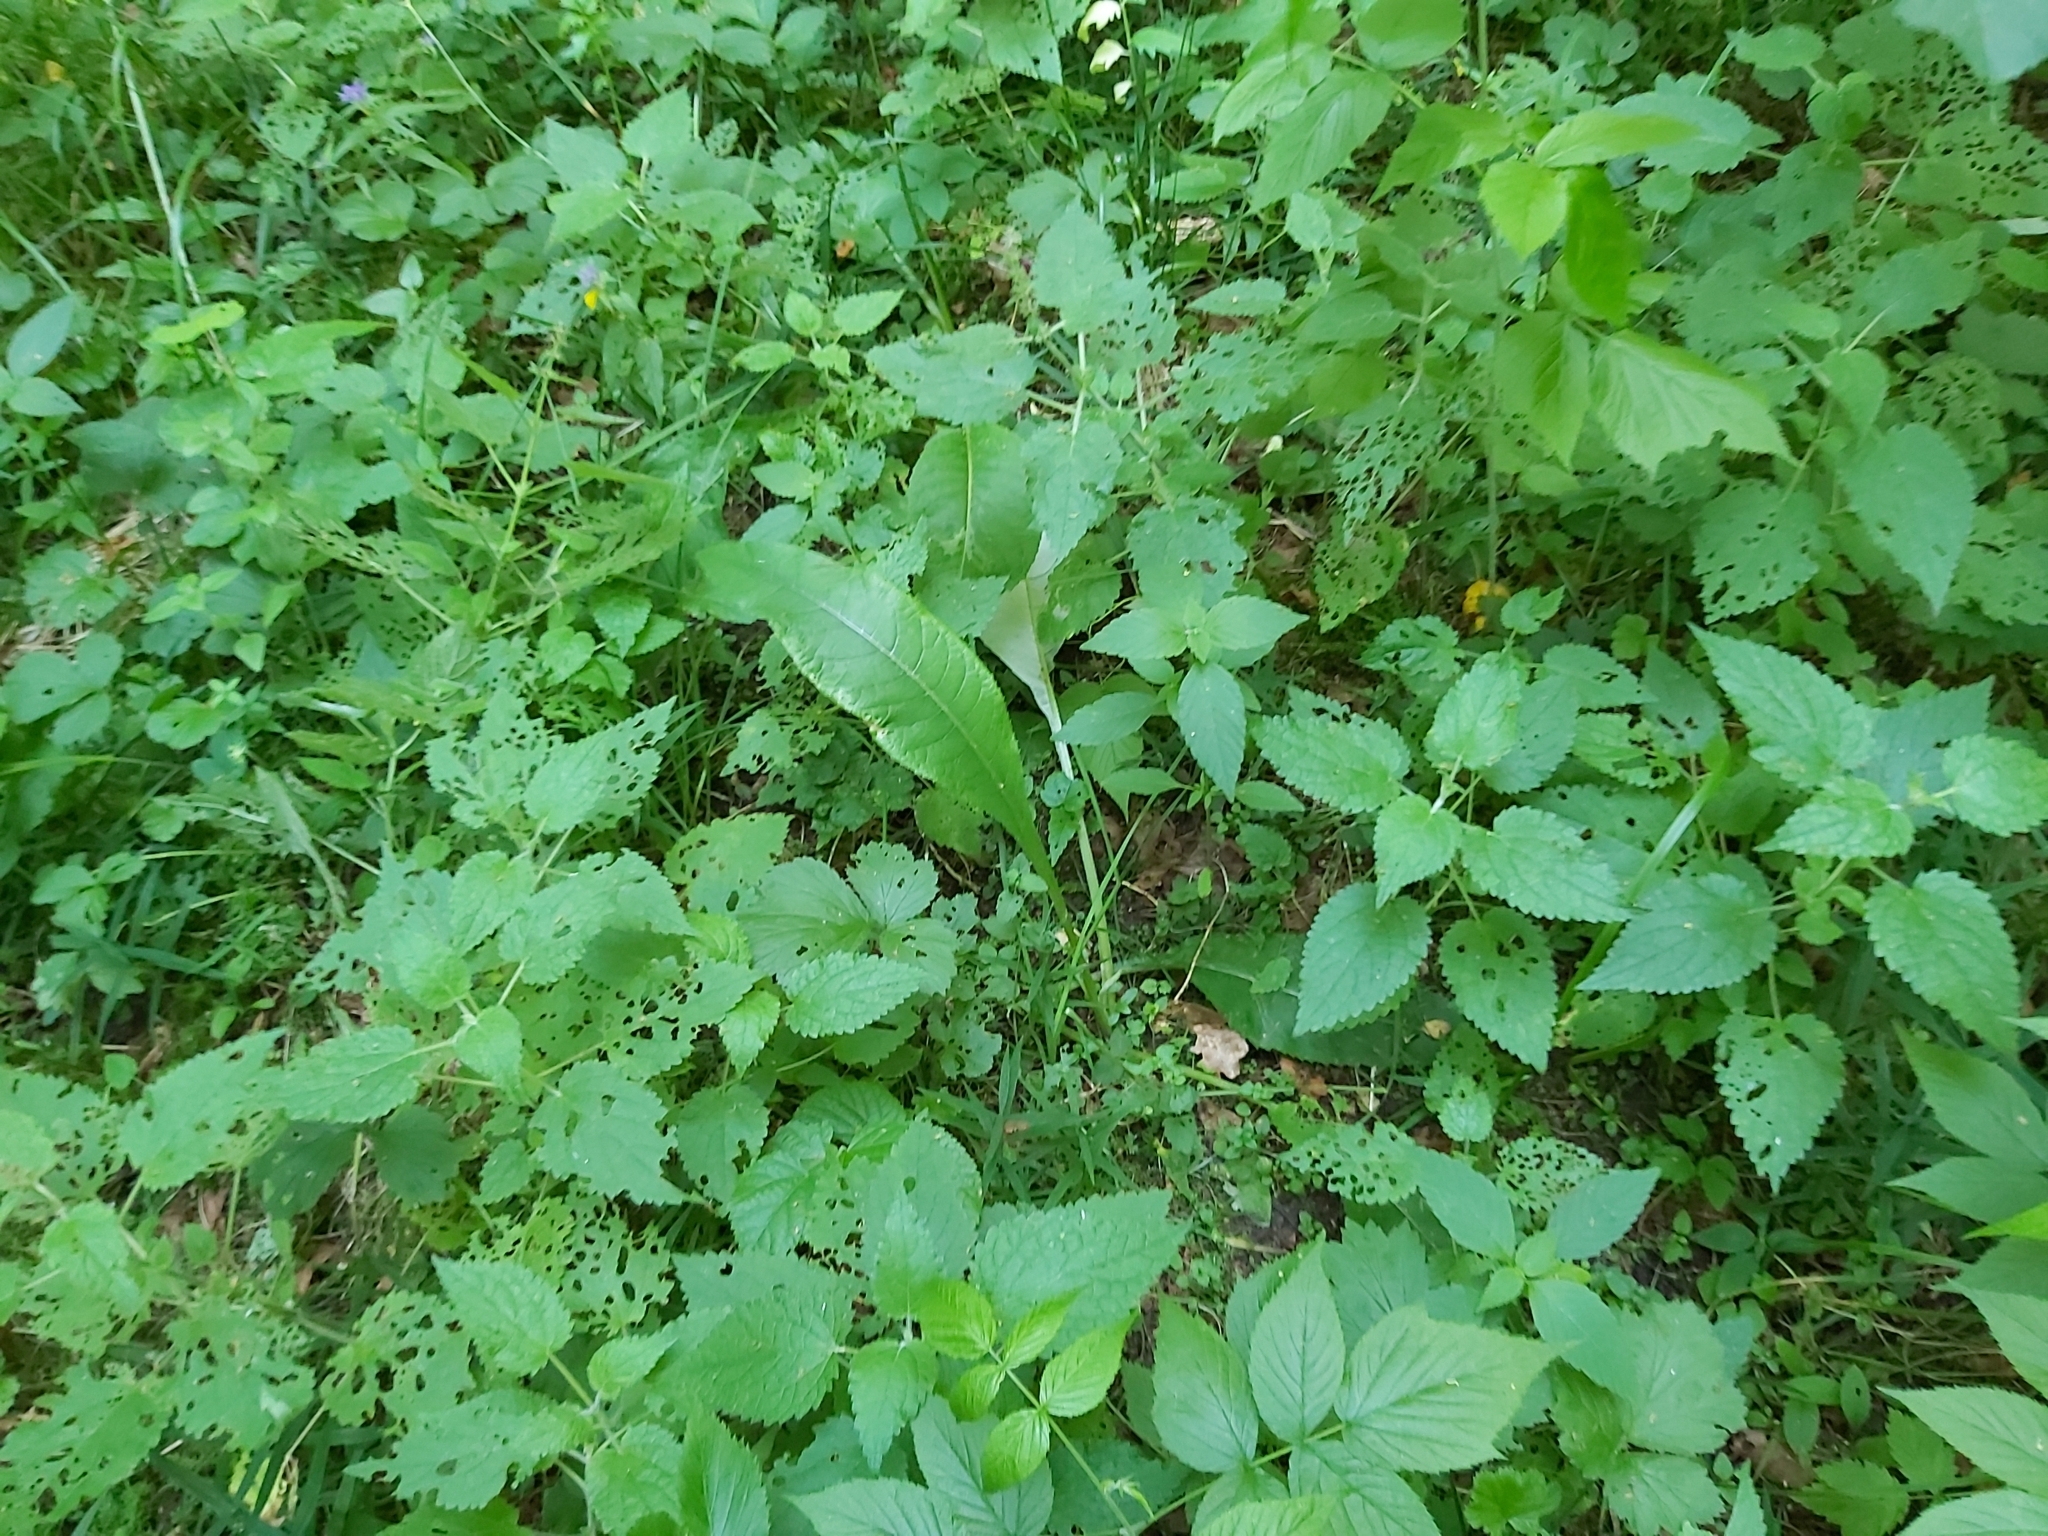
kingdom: Plantae
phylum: Tracheophyta
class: Magnoliopsida
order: Asterales
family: Asteraceae
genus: Cirsium
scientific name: Cirsium heterophyllum
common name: Melancholy thistle
